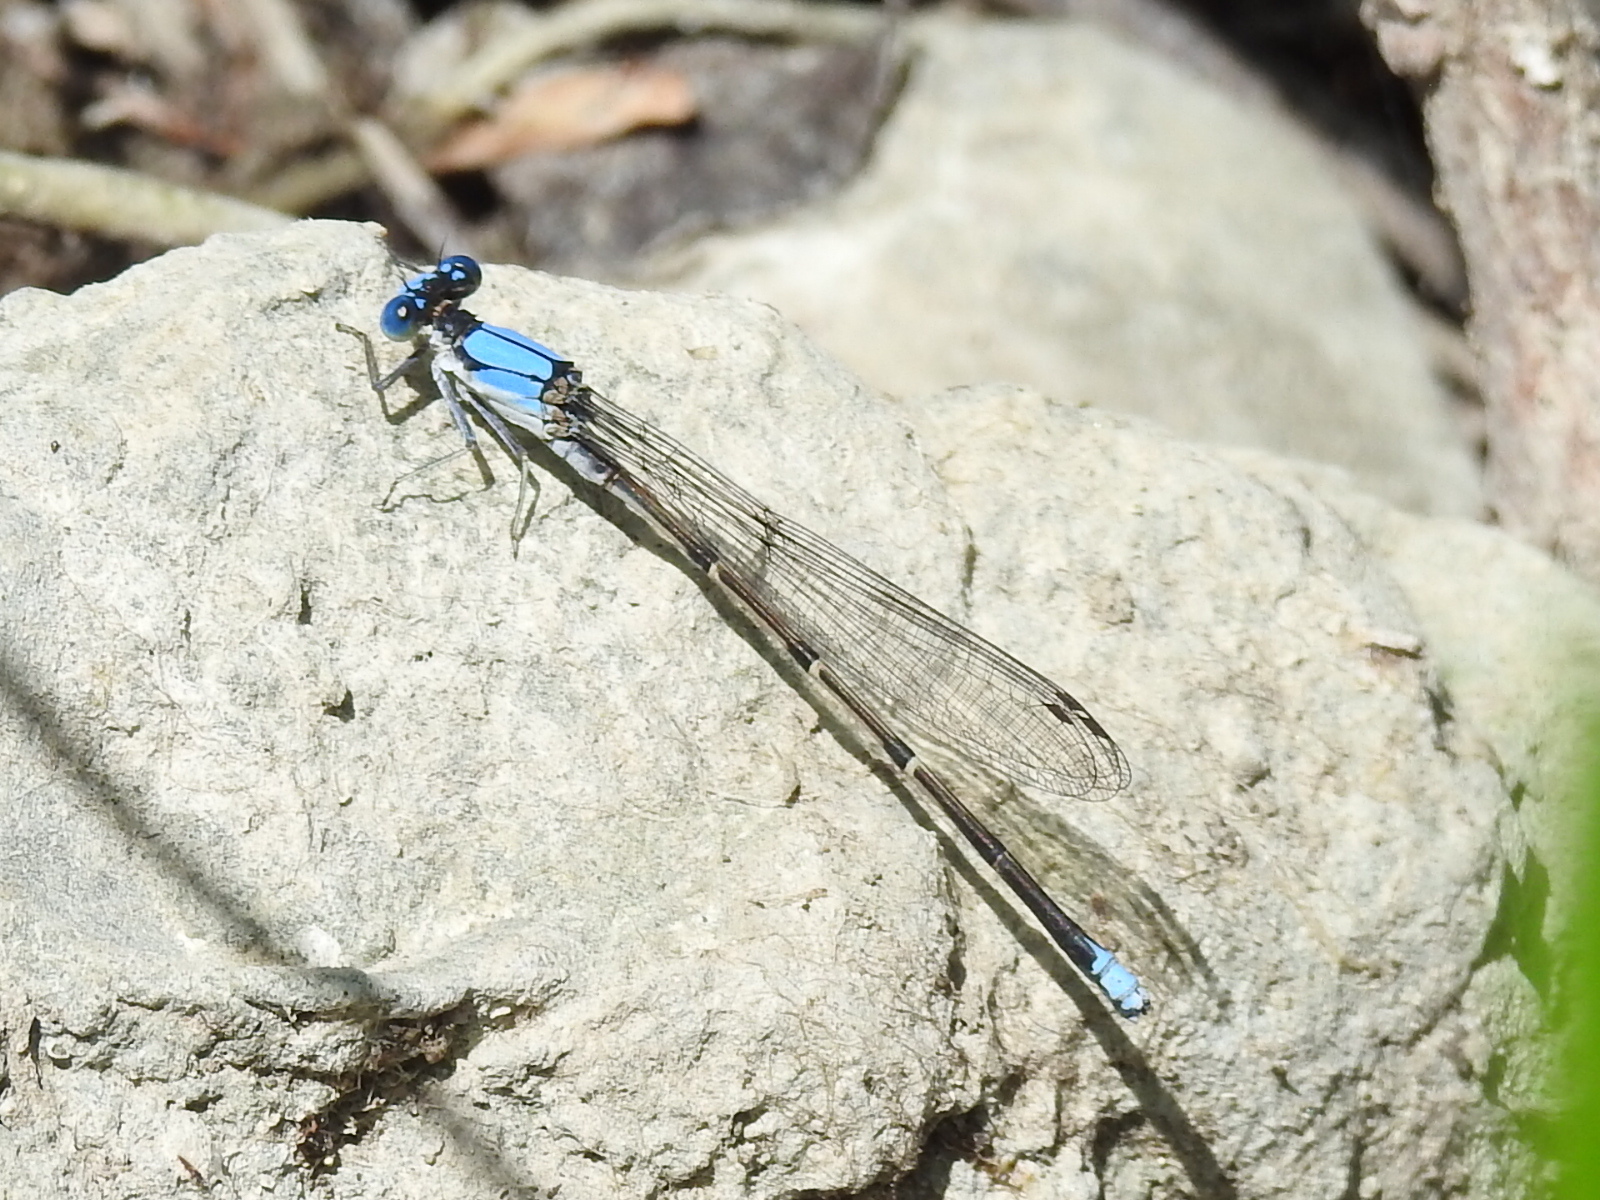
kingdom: Animalia
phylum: Arthropoda
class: Insecta
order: Odonata
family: Coenagrionidae
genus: Argia
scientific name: Argia apicalis
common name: Blue-fronted dancer
